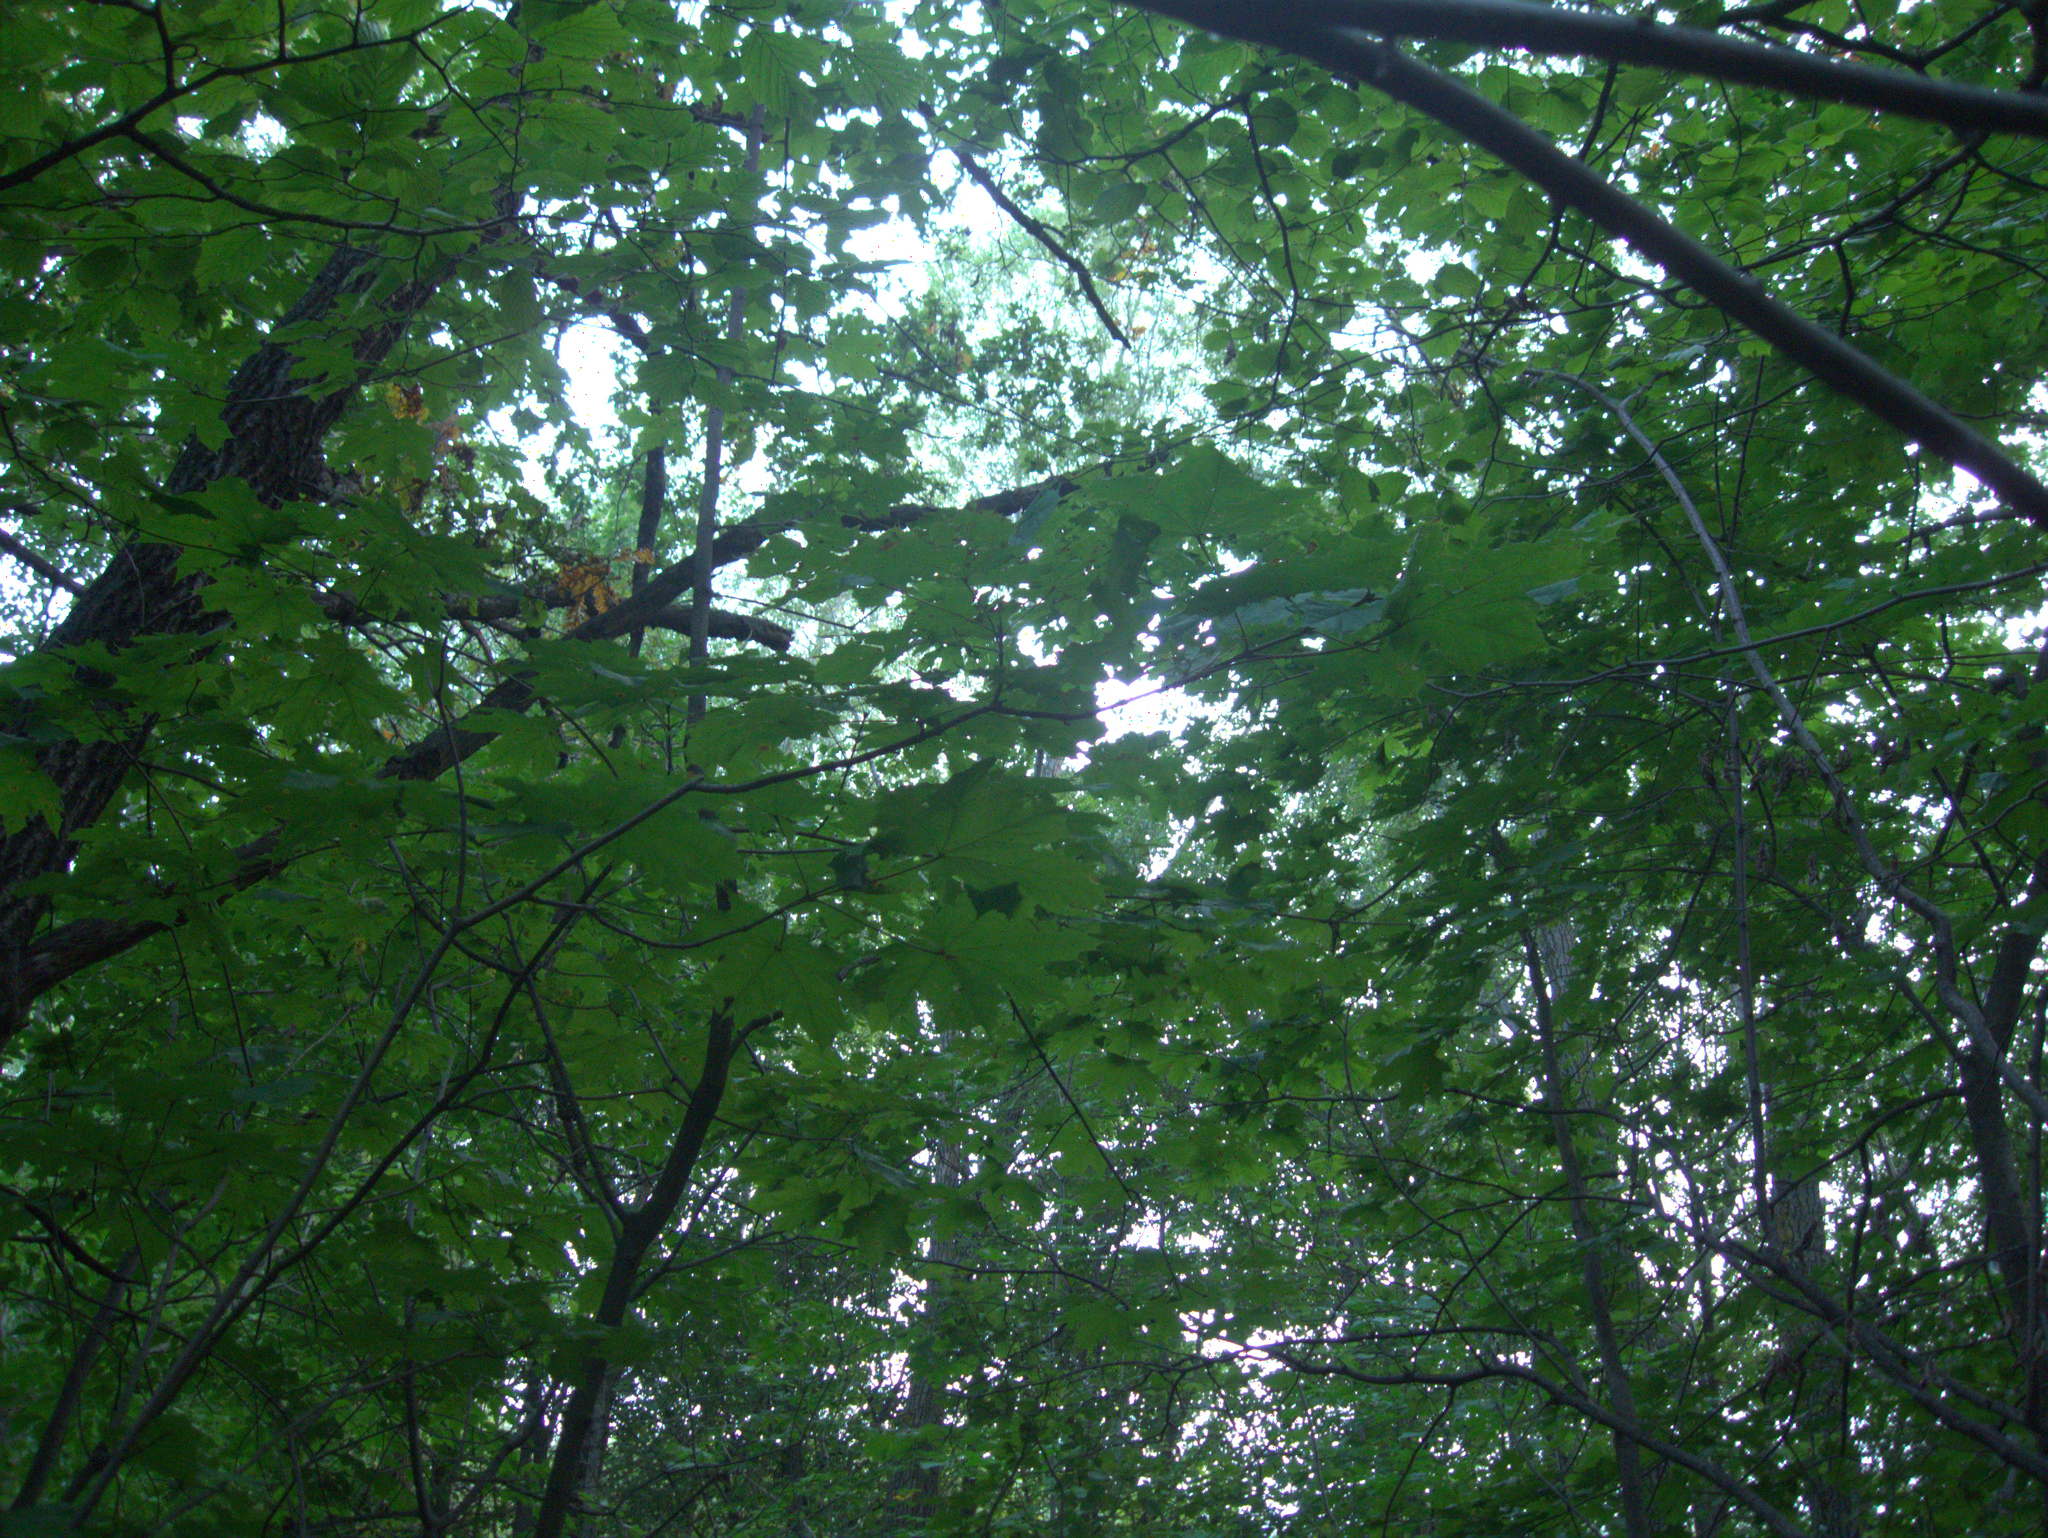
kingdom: Plantae
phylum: Tracheophyta
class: Magnoliopsida
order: Sapindales
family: Sapindaceae
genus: Acer
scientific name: Acer platanoides
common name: Norway maple
